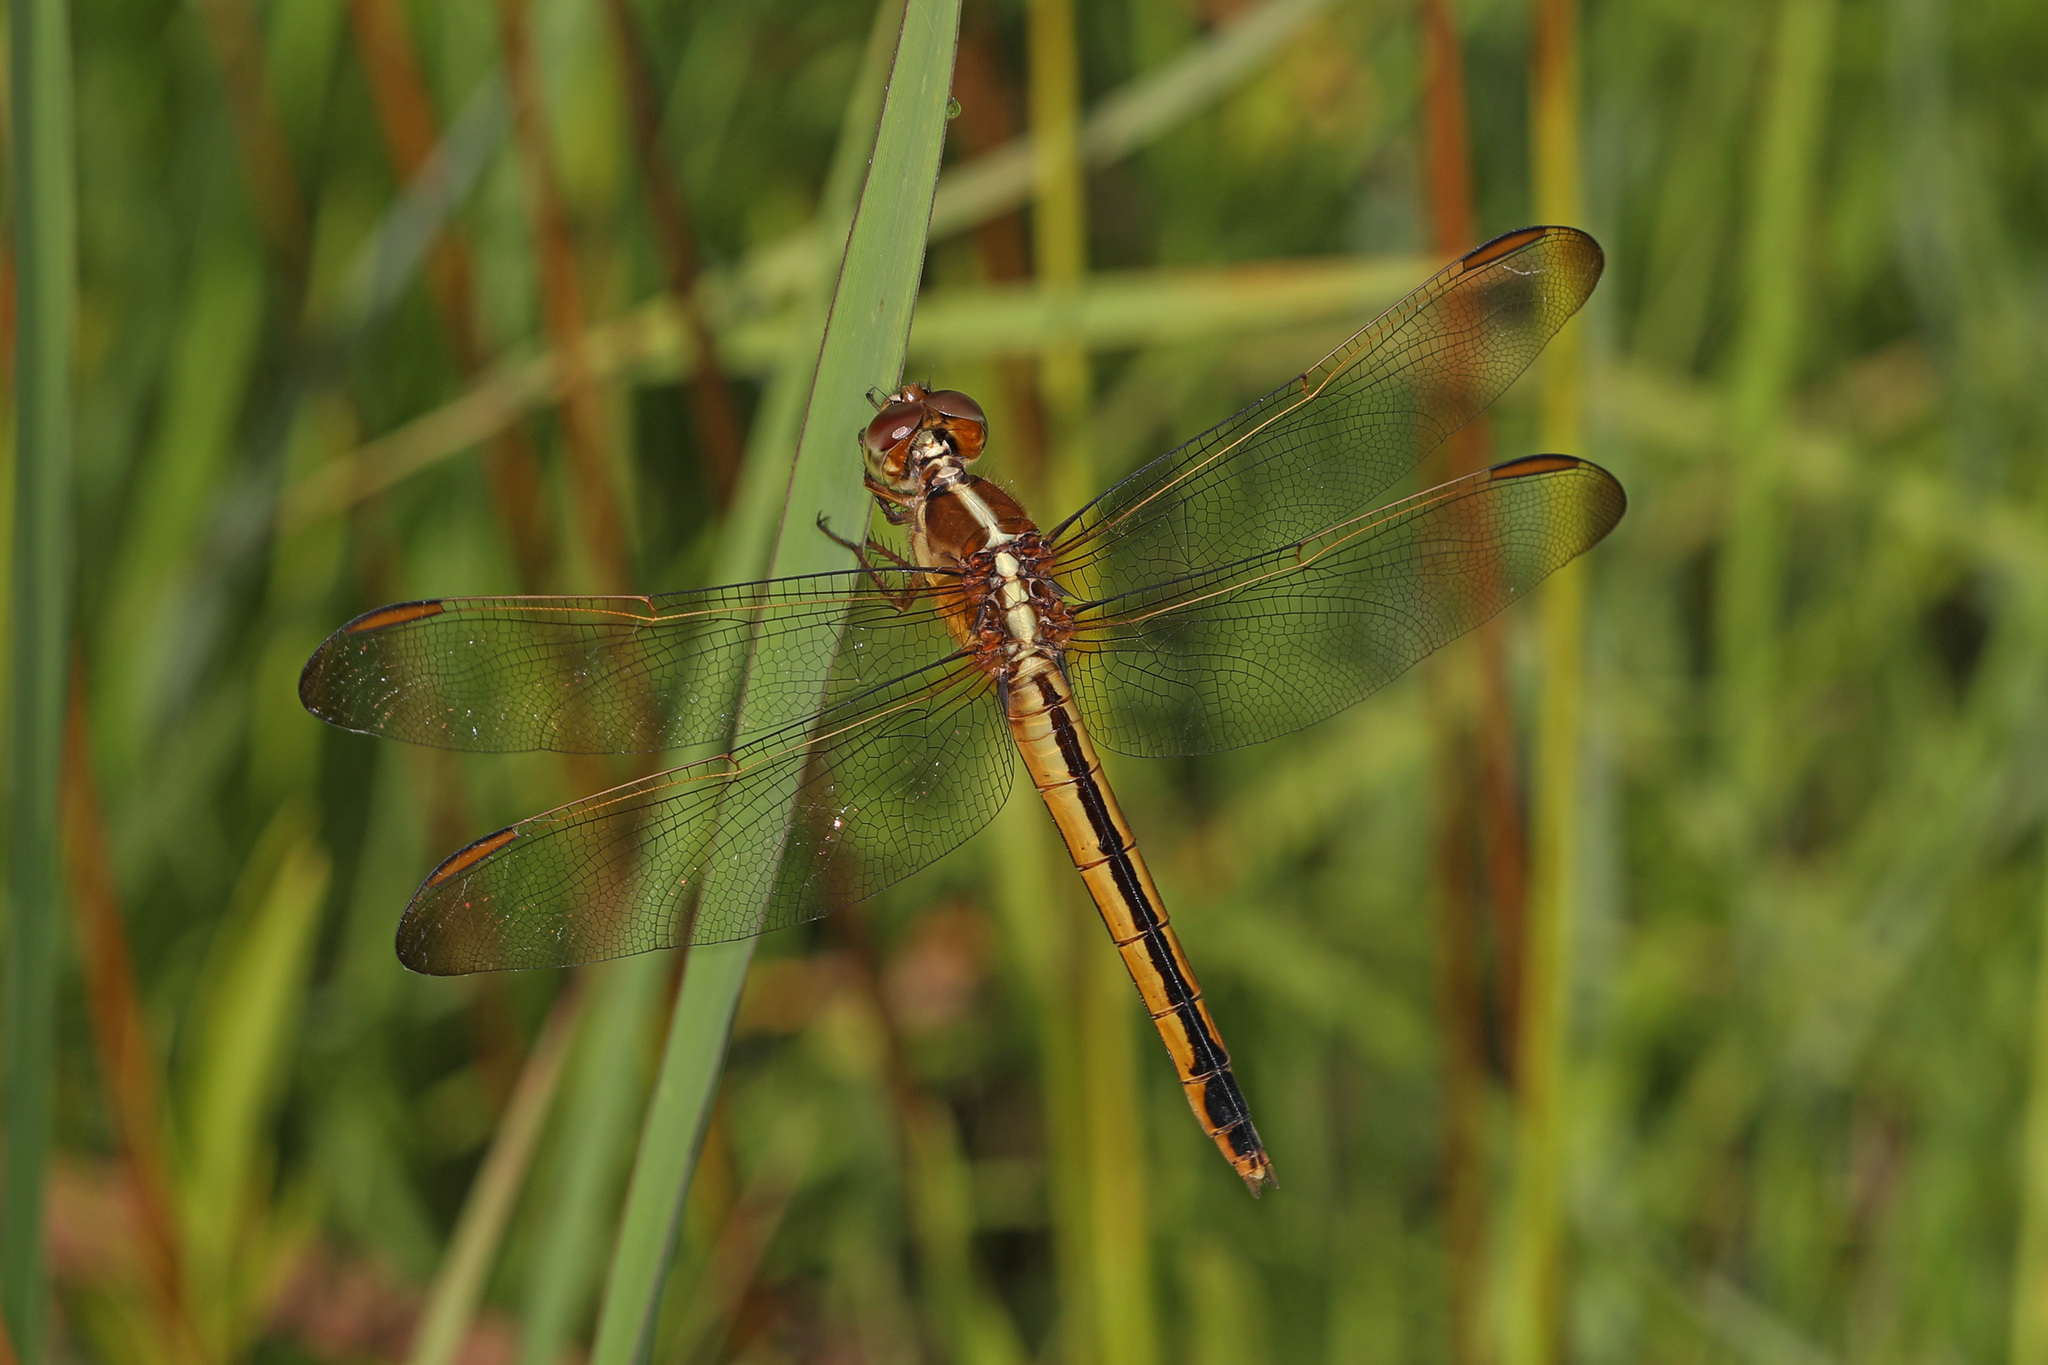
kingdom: Animalia
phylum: Arthropoda
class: Insecta
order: Odonata
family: Libellulidae
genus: Libellula
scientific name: Libellula needhami
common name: Needham's skimmer
